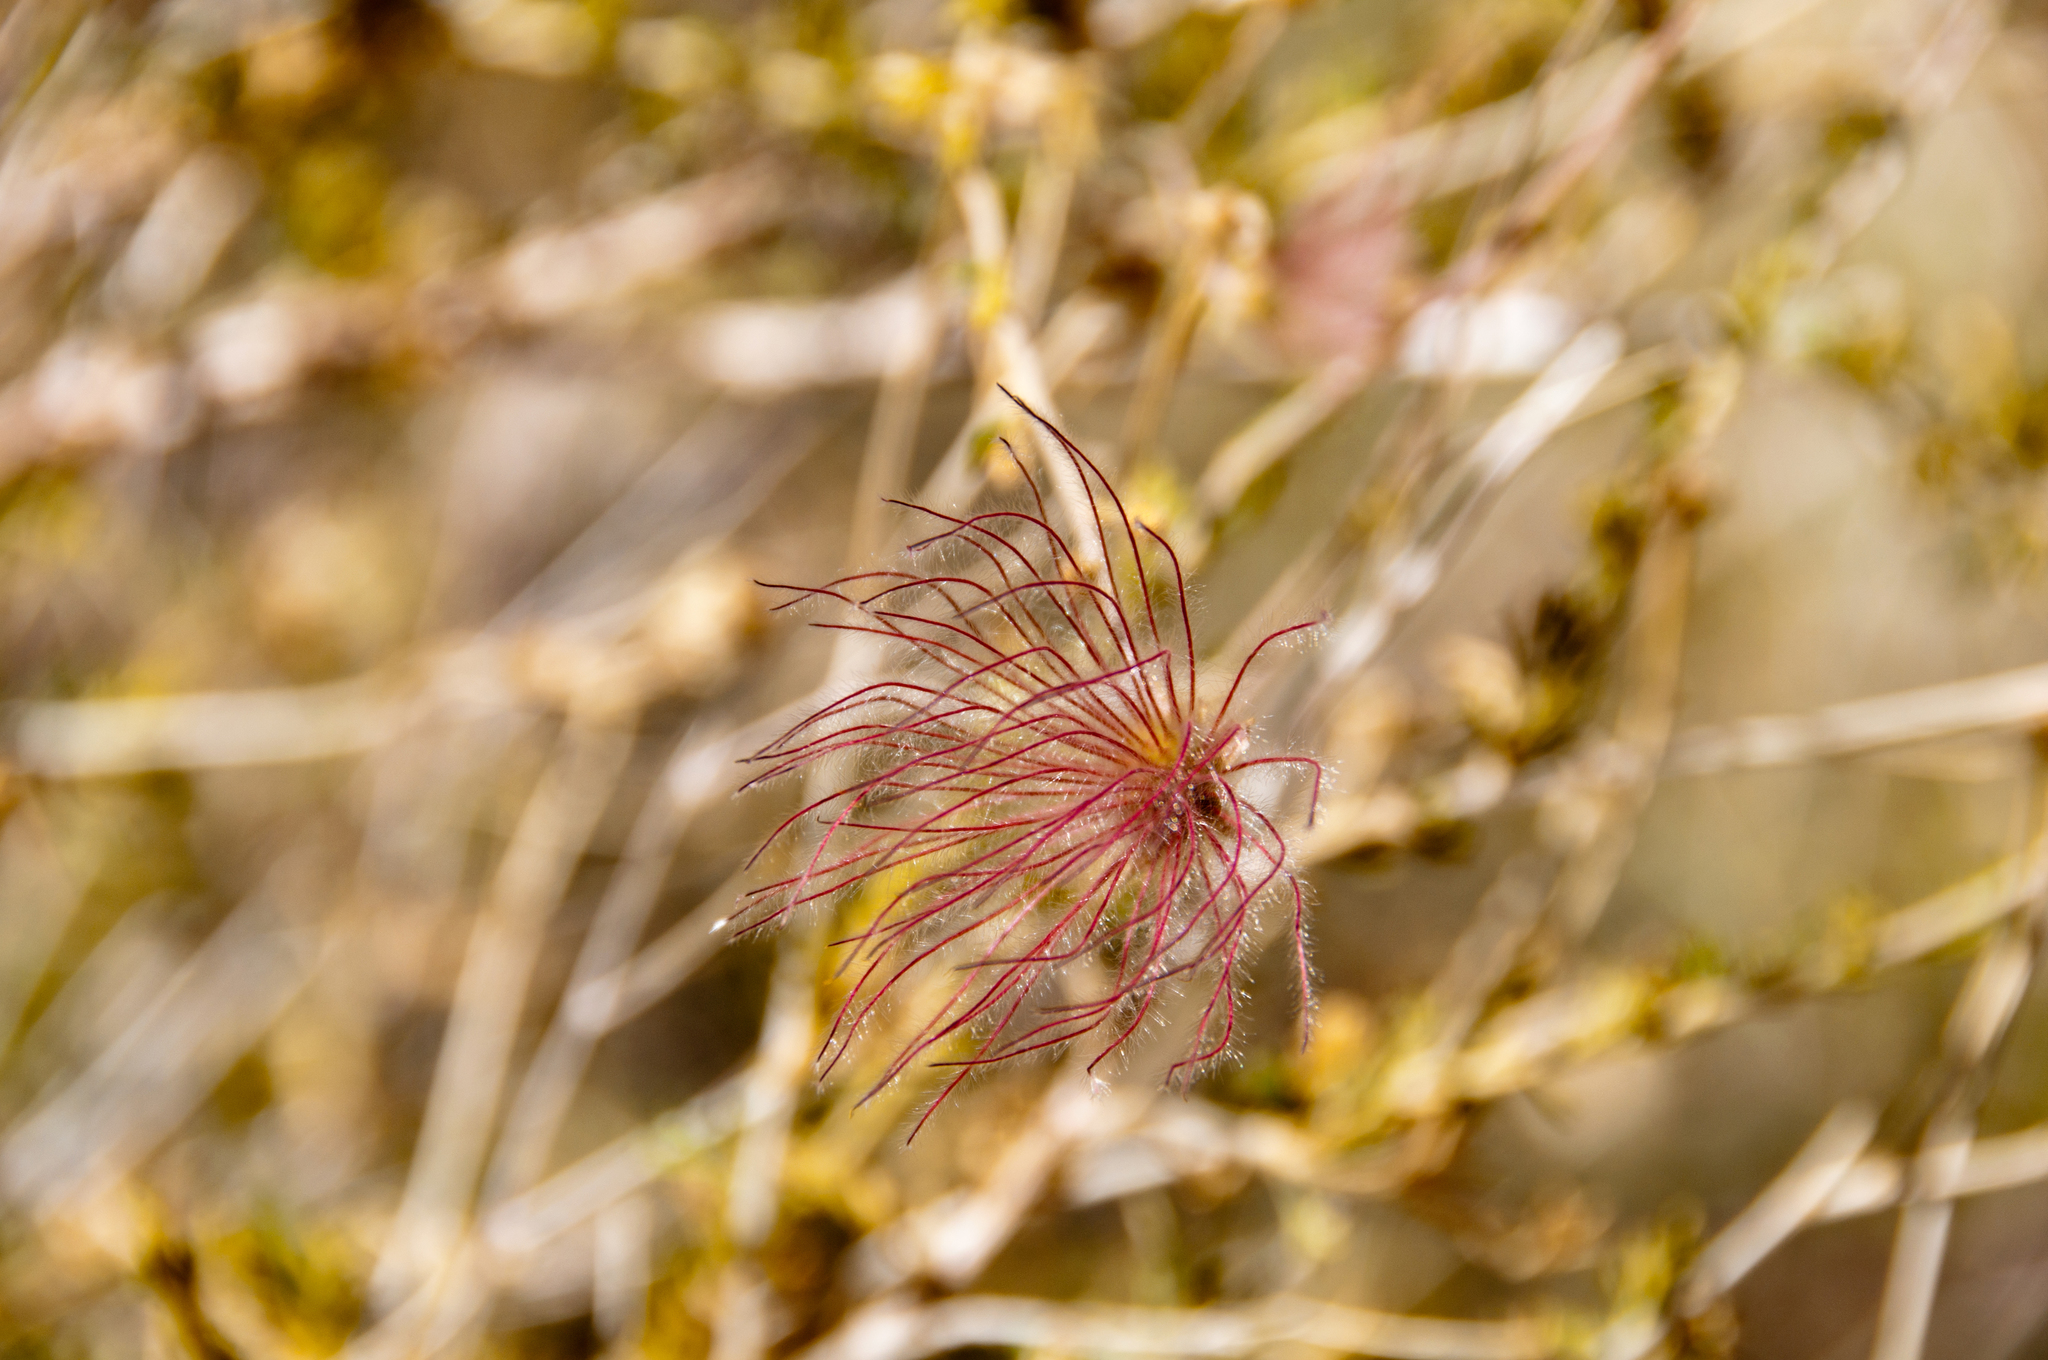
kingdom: Plantae
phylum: Tracheophyta
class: Magnoliopsida
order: Rosales
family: Rosaceae
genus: Fallugia
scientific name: Fallugia paradoxa
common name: Apache-plume
